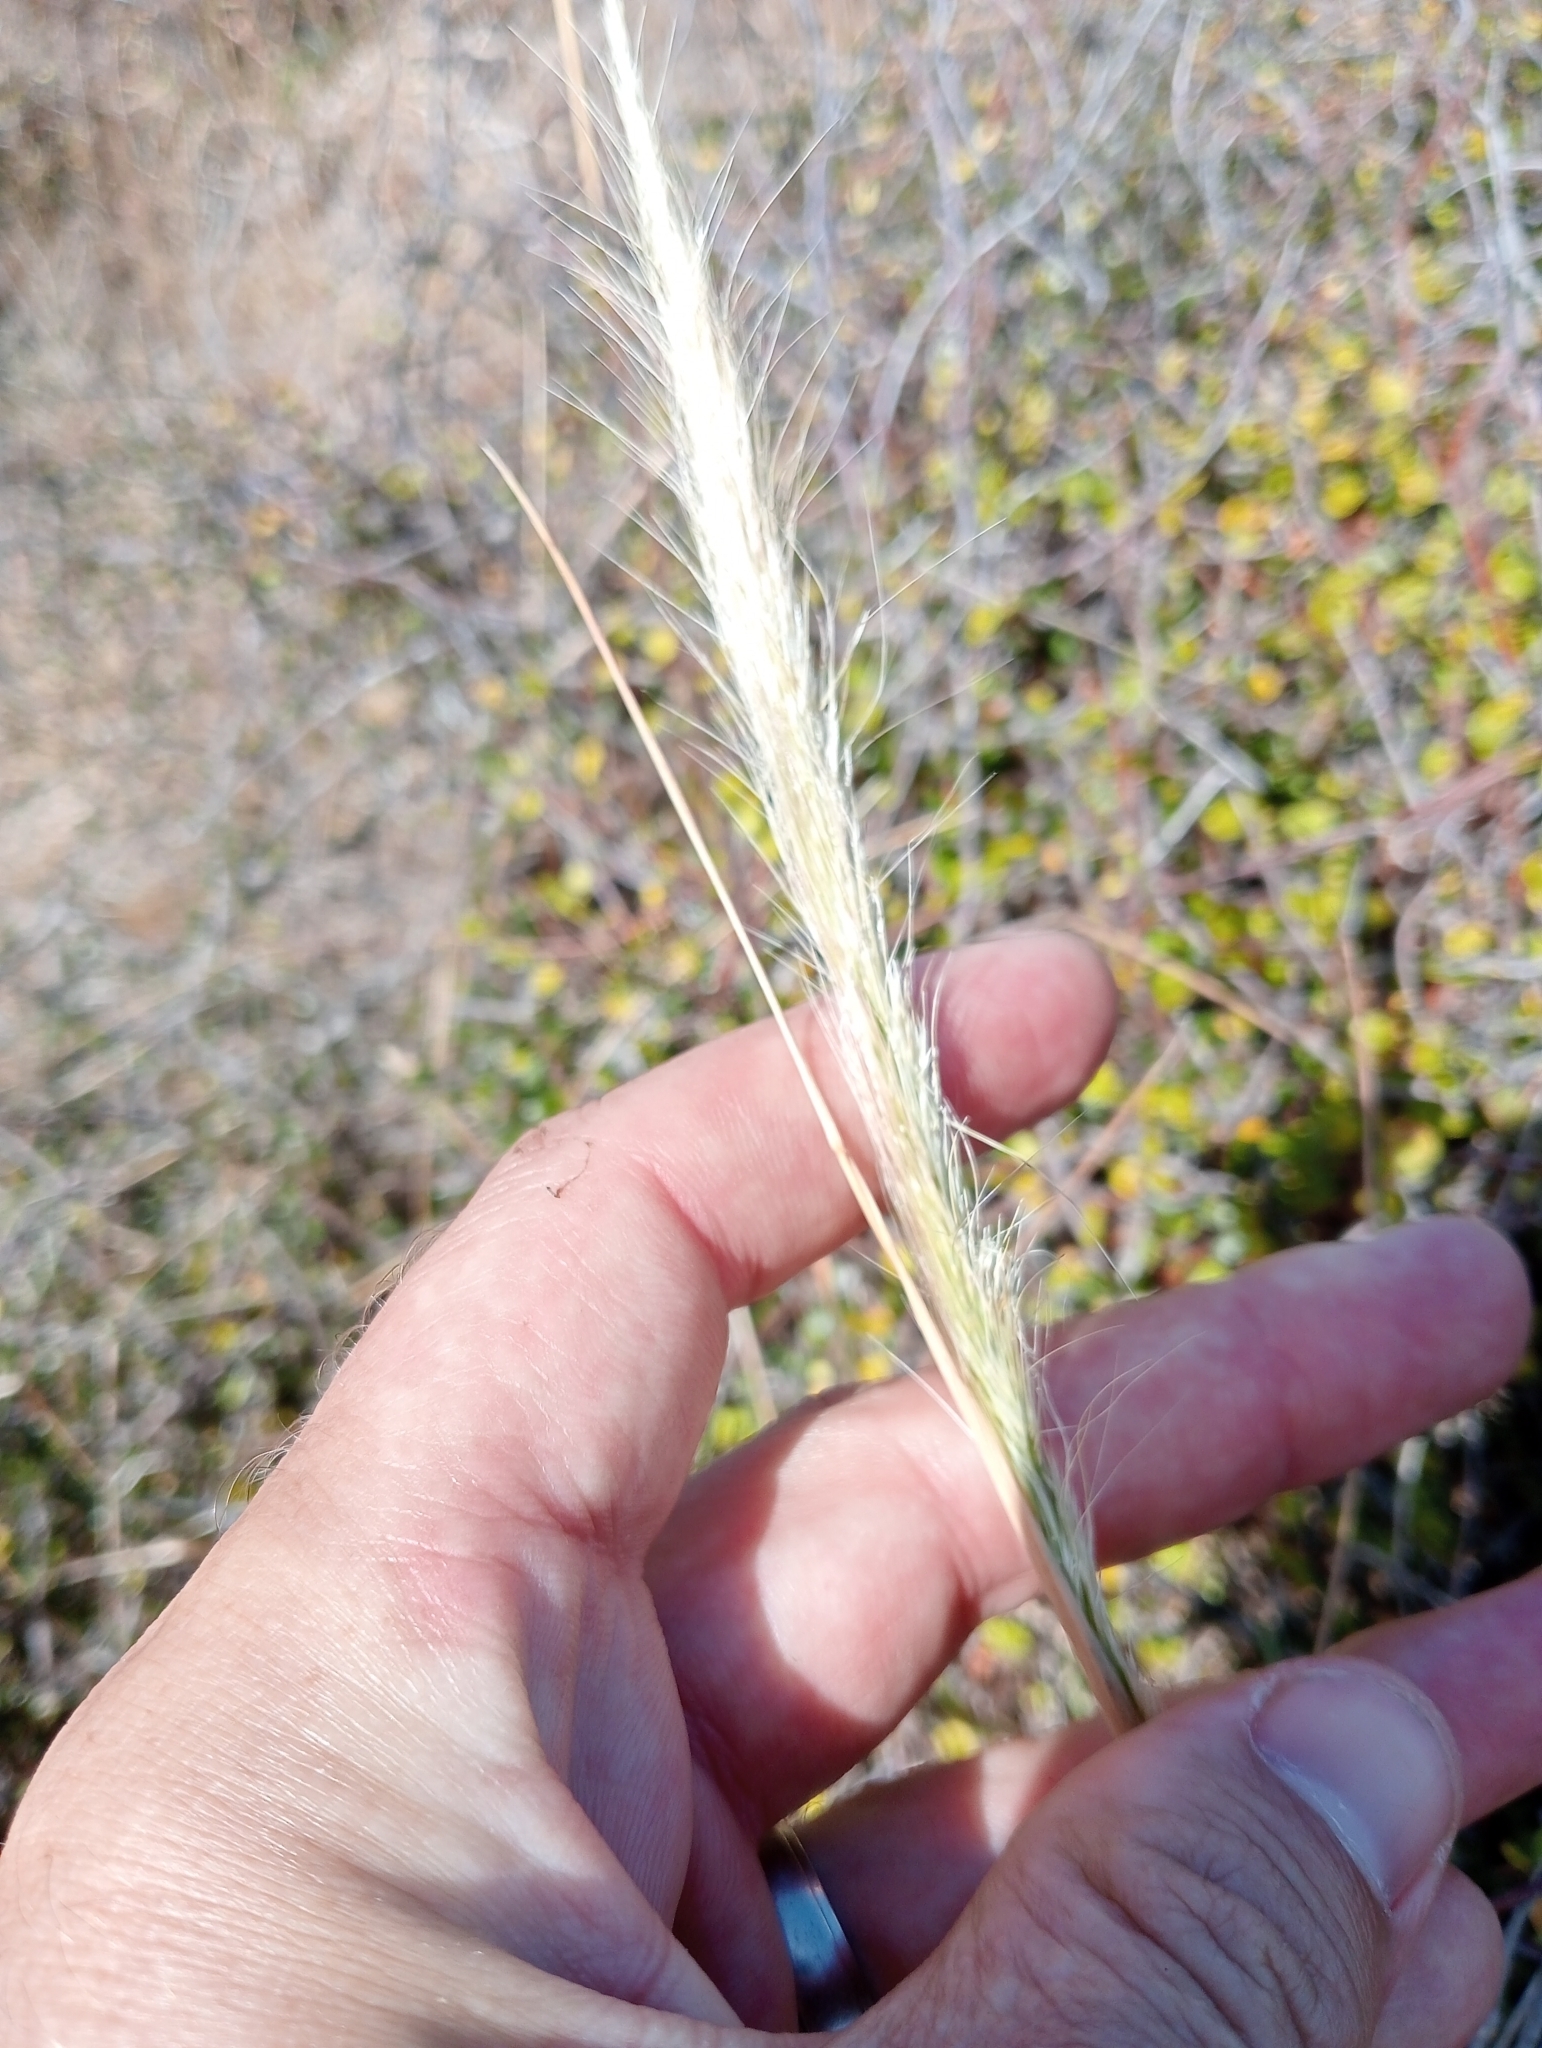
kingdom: Plantae
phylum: Tracheophyta
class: Liliopsida
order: Poales
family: Poaceae
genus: Dichelachne
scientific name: Dichelachne crinita
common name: Clovenfoot plumegrass
